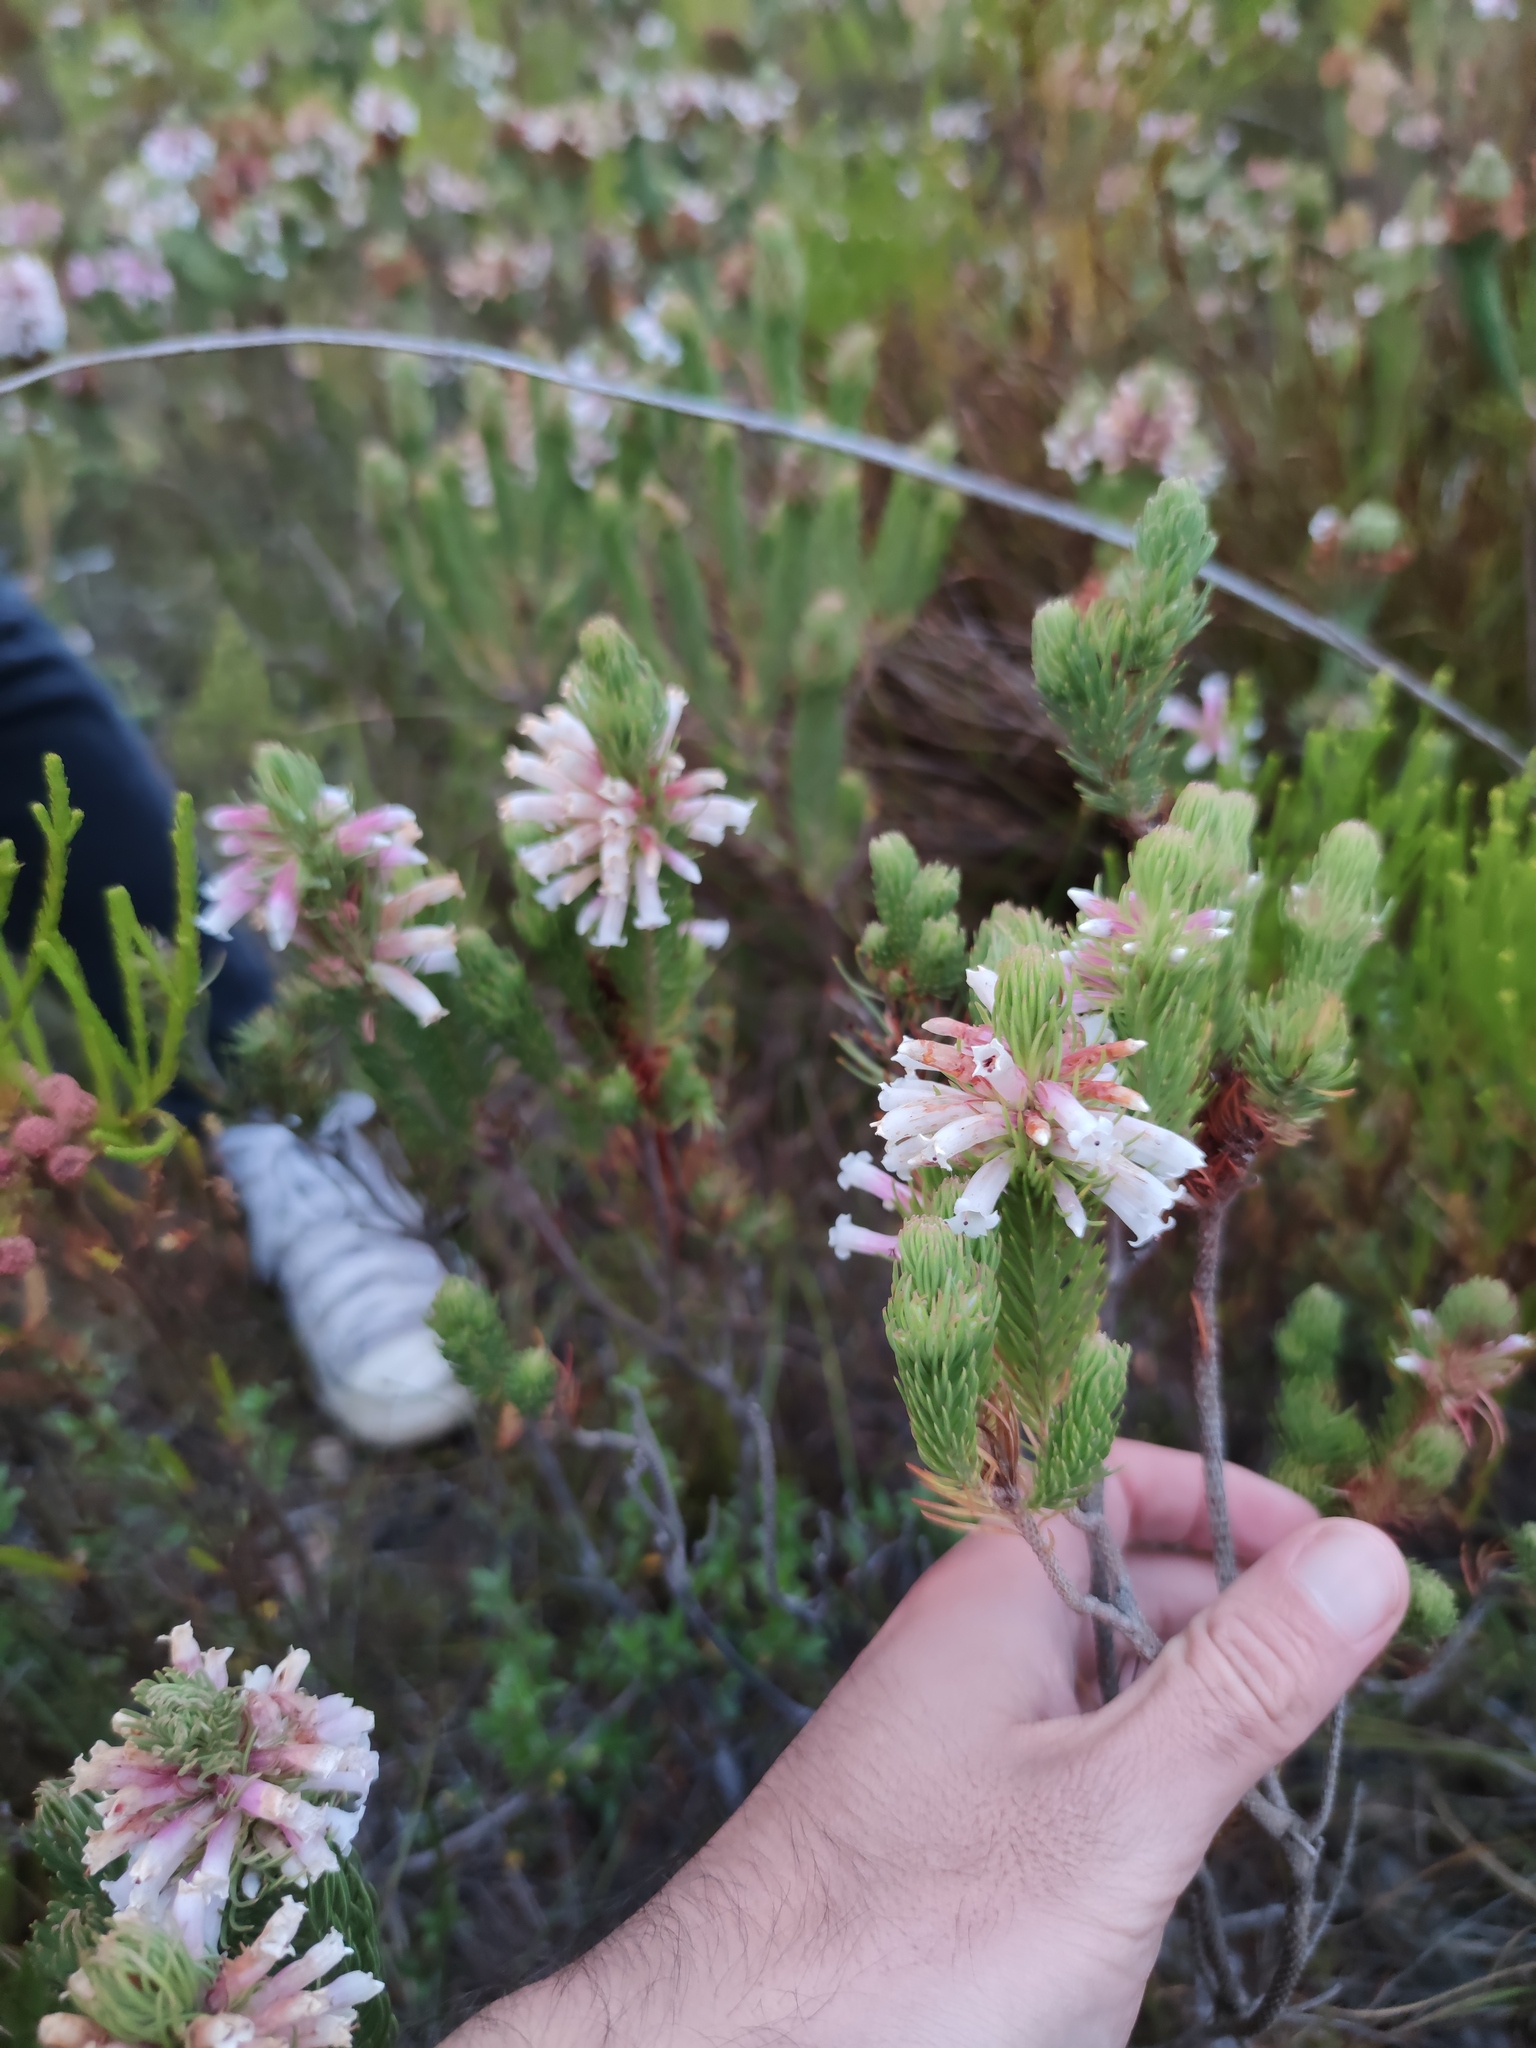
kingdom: Plantae
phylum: Tracheophyta
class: Magnoliopsida
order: Ericales
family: Ericaceae
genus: Erica
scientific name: Erica viscaria
